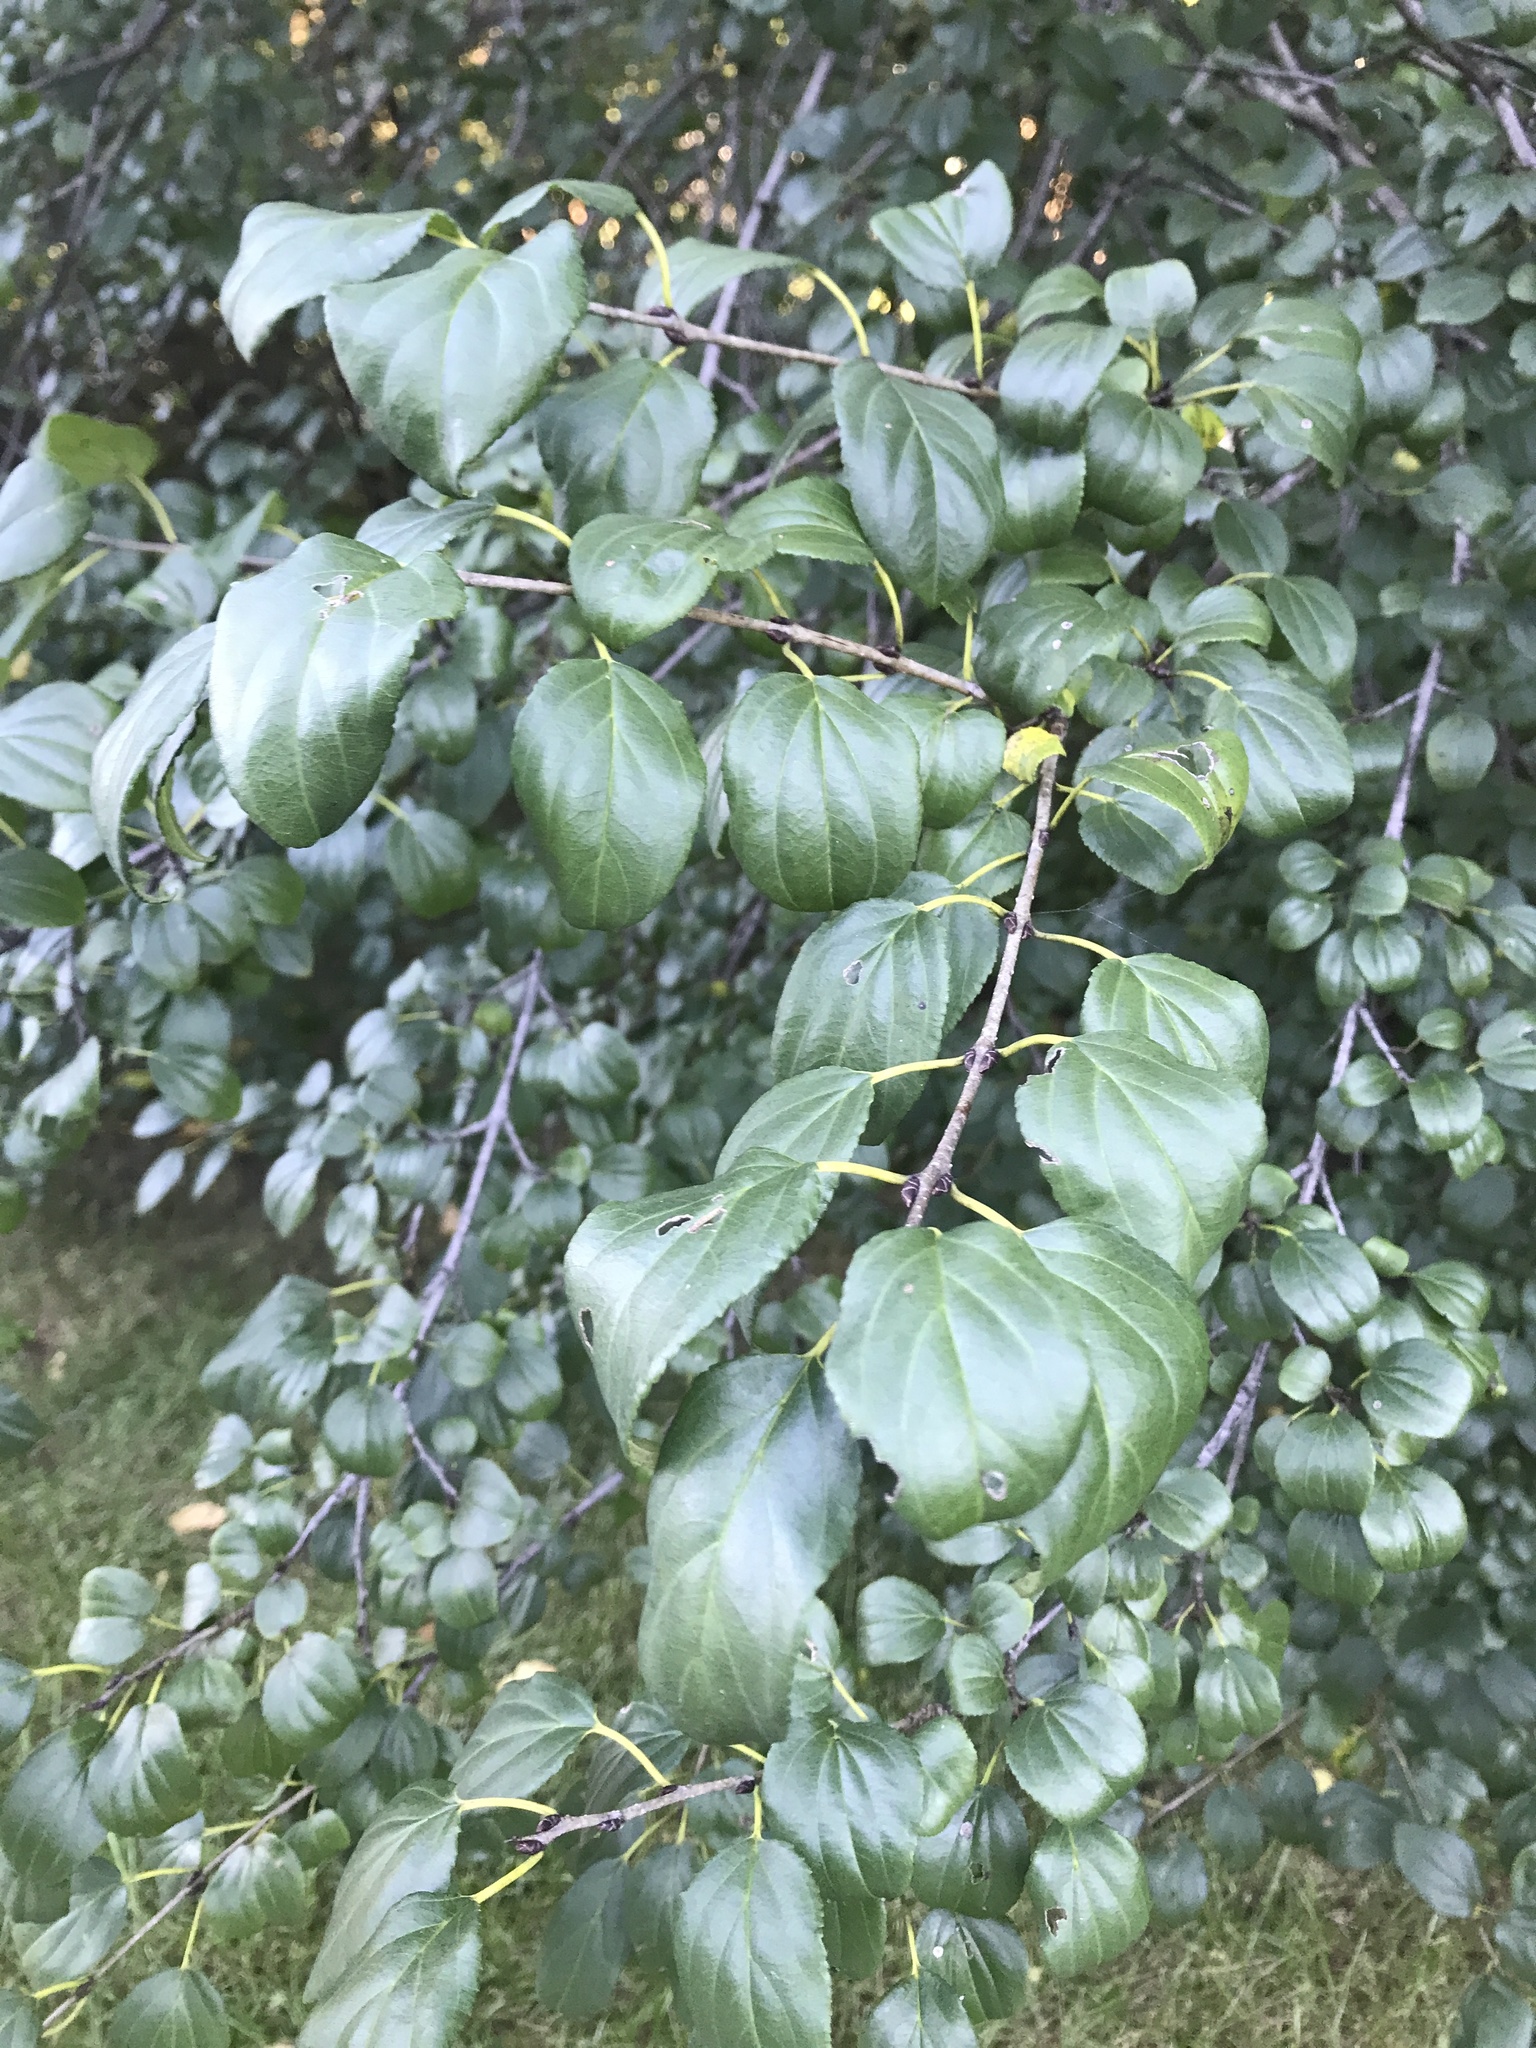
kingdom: Plantae
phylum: Tracheophyta
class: Magnoliopsida
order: Rosales
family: Rhamnaceae
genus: Rhamnus
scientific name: Rhamnus cathartica
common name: Common buckthorn
